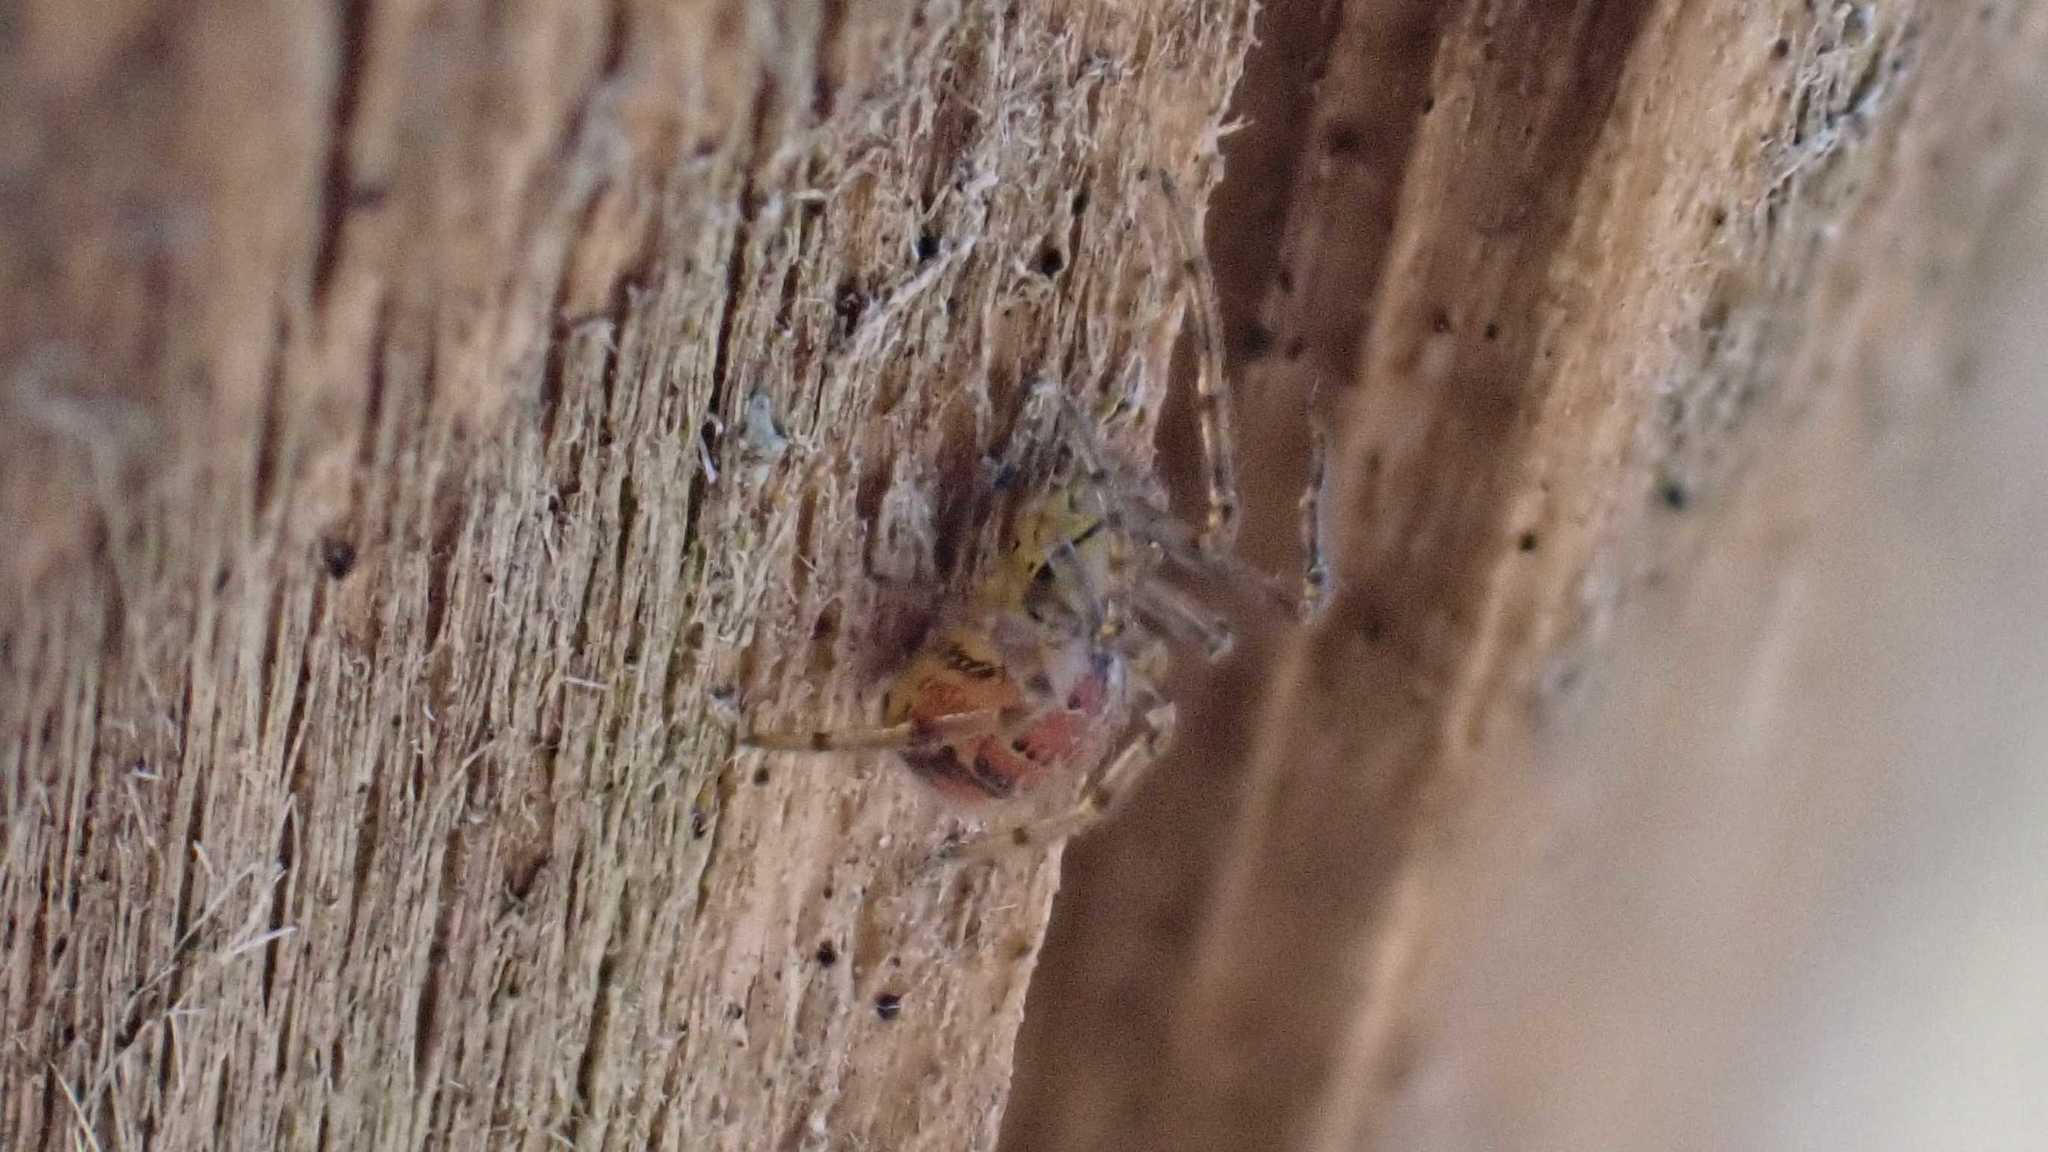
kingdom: Animalia
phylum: Arthropoda
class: Arachnida
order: Araneae
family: Theridiidae
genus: Phylloneta
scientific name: Phylloneta
